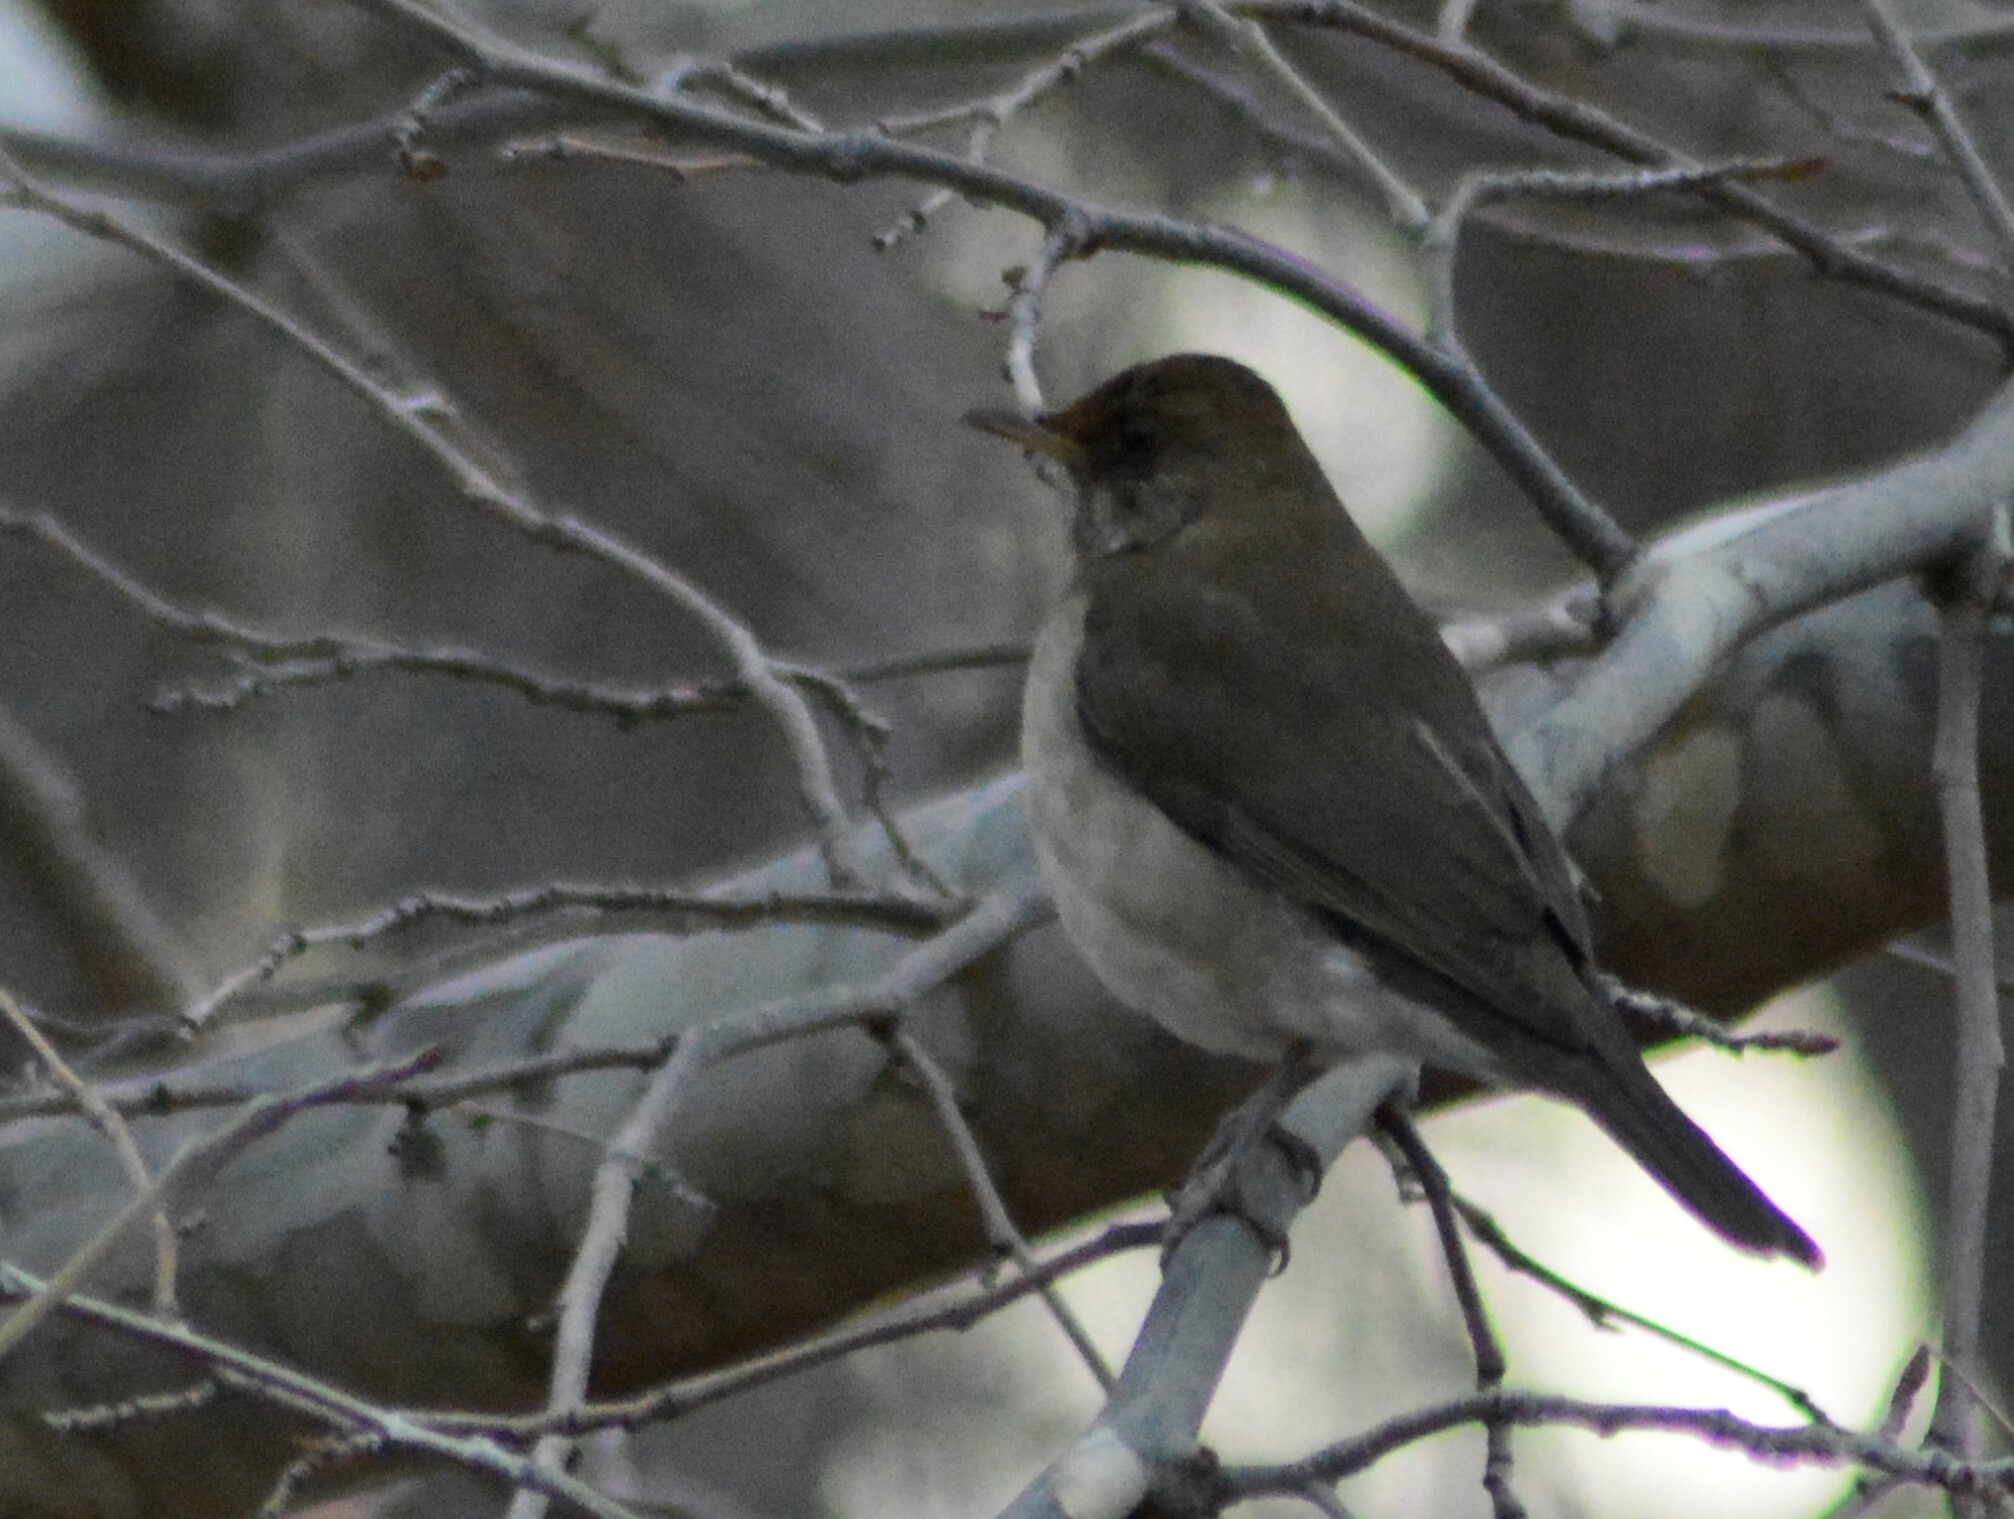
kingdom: Animalia
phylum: Chordata
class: Aves
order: Passeriformes
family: Turdidae
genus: Turdus
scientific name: Turdus amaurochalinus
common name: Creamy-bellied thrush
